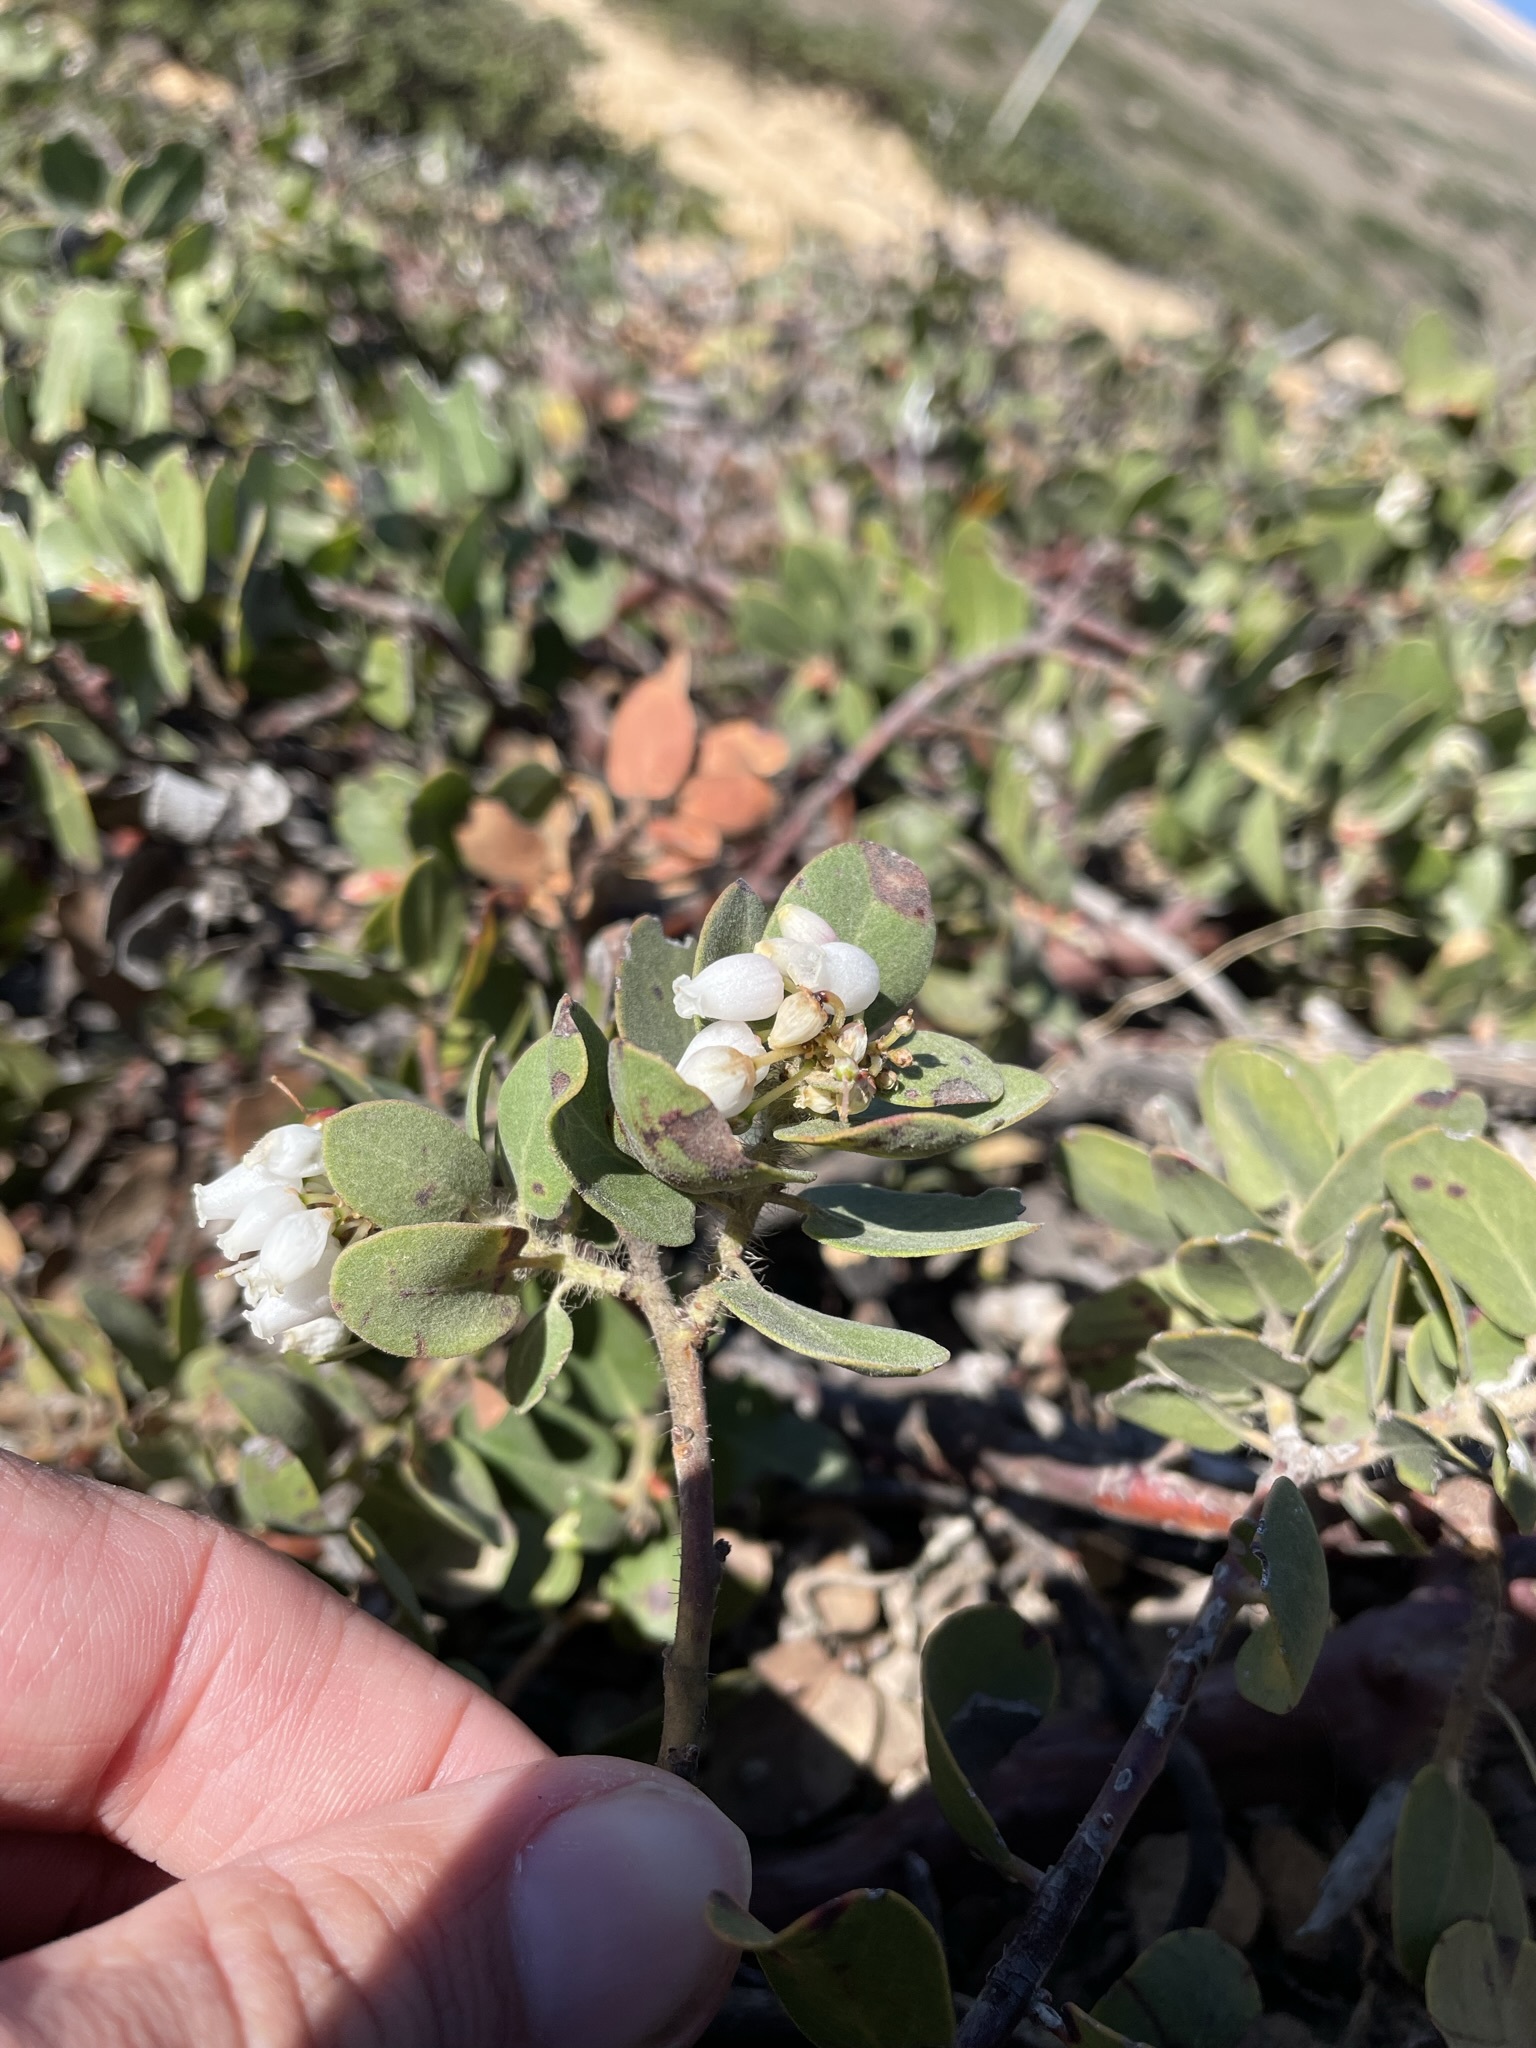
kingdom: Plantae
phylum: Tracheophyta
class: Magnoliopsida
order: Ericales
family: Ericaceae
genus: Arctostaphylos
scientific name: Arctostaphylos crustacea
